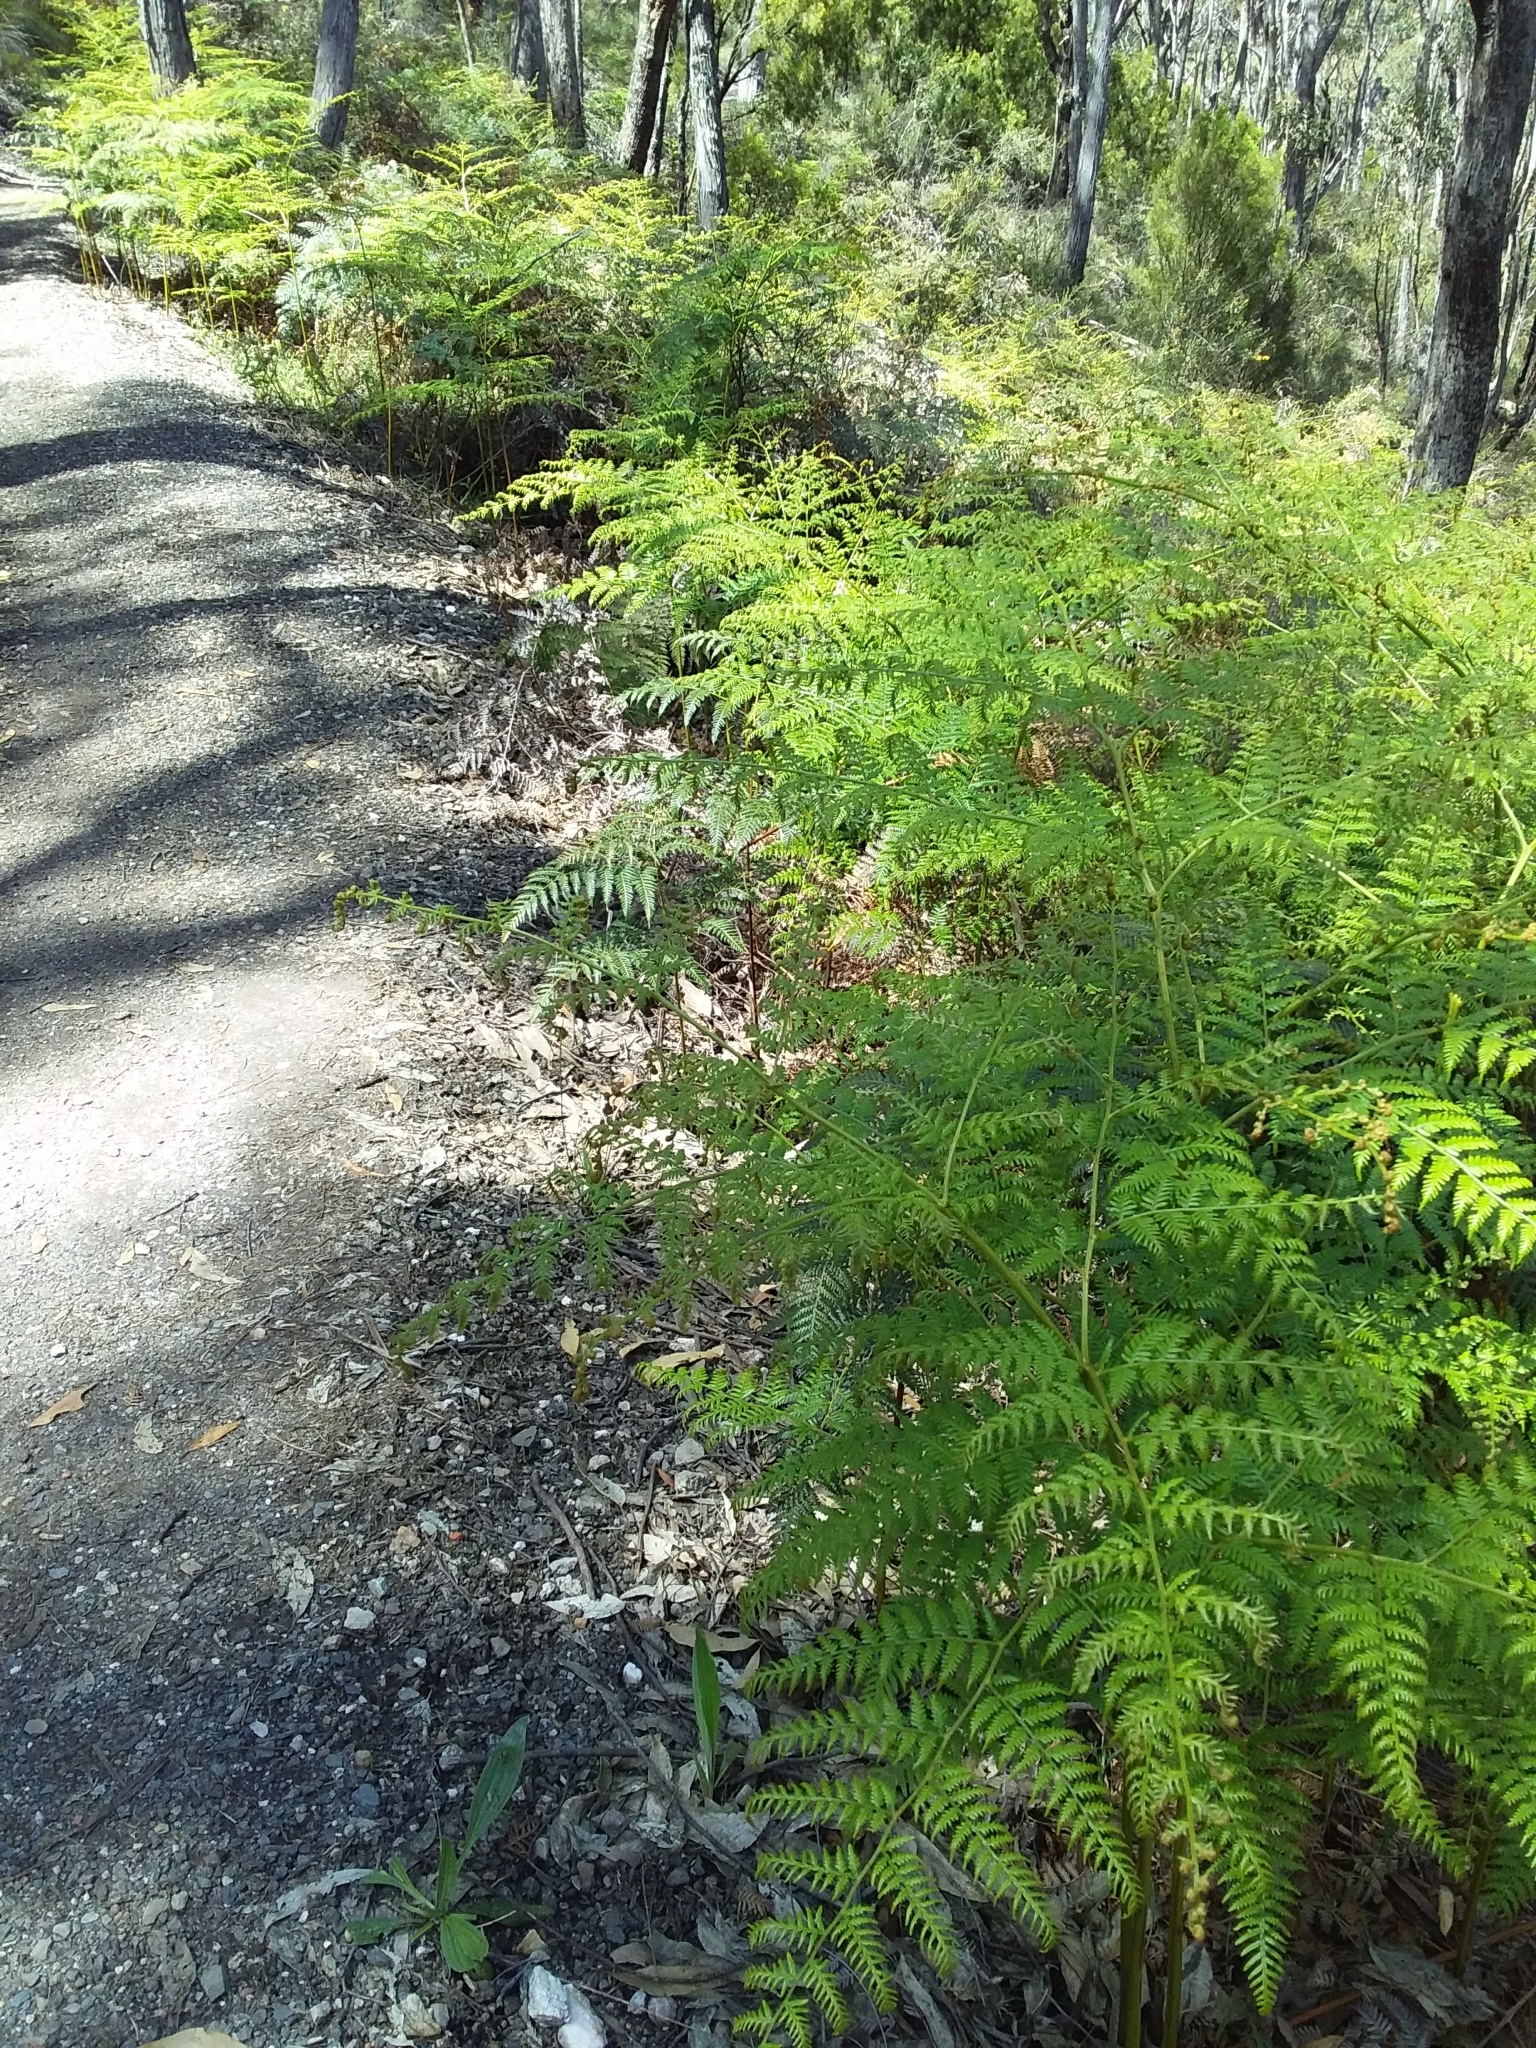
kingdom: Plantae
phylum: Tracheophyta
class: Polypodiopsida
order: Polypodiales
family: Dennstaedtiaceae
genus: Pteridium
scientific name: Pteridium esculentum
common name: Bracken fern
